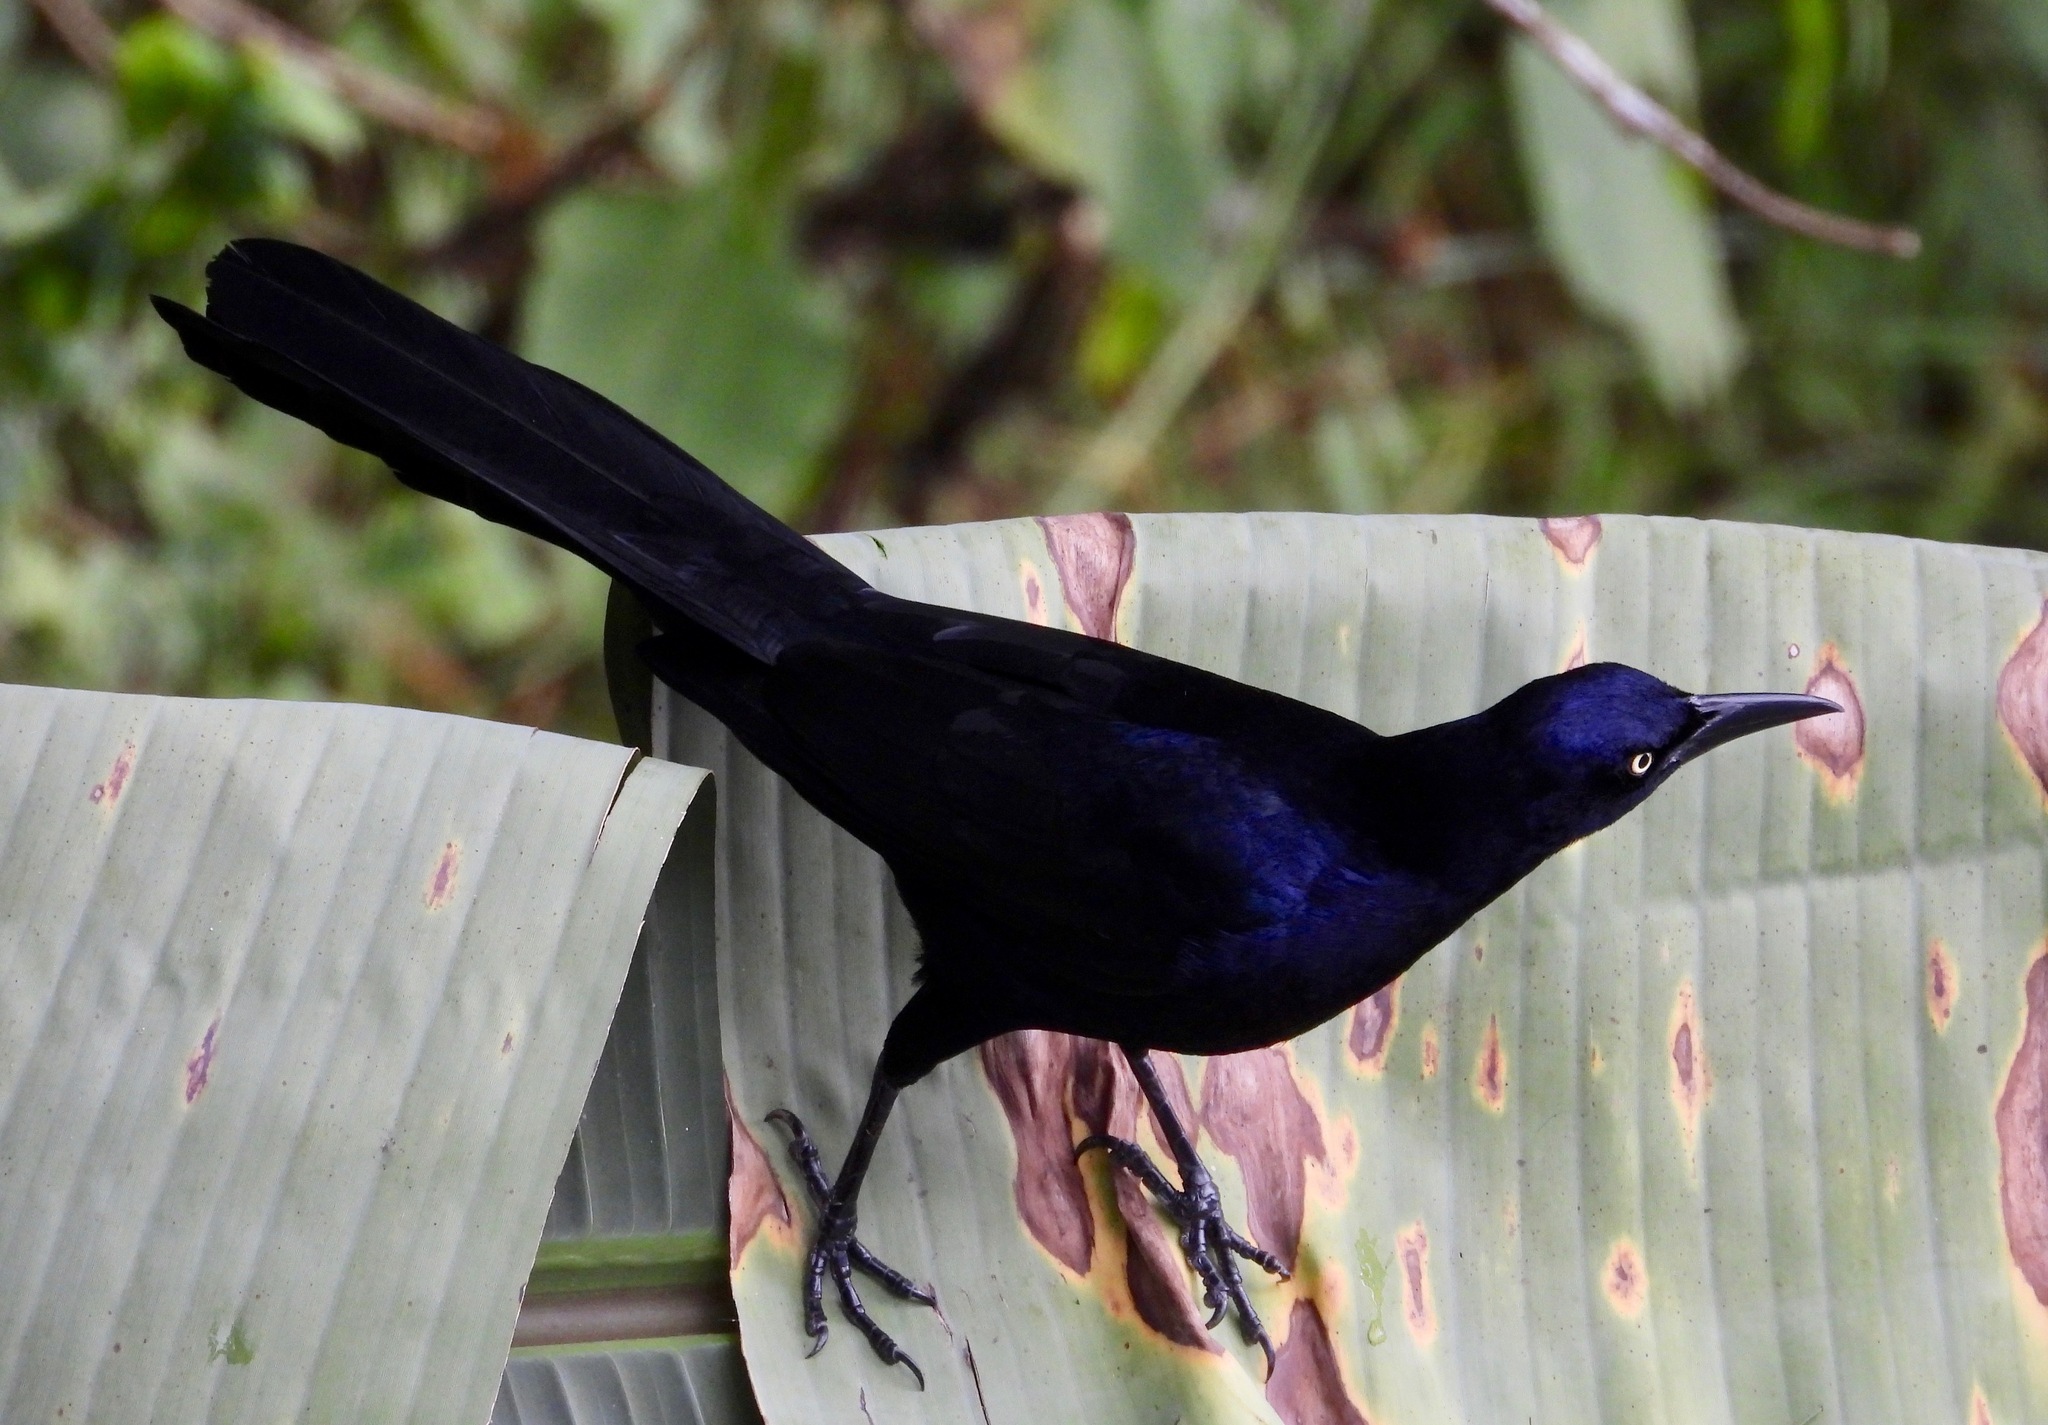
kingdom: Animalia
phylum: Chordata
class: Aves
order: Passeriformes
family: Icteridae
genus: Quiscalus
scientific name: Quiscalus mexicanus
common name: Great-tailed grackle
